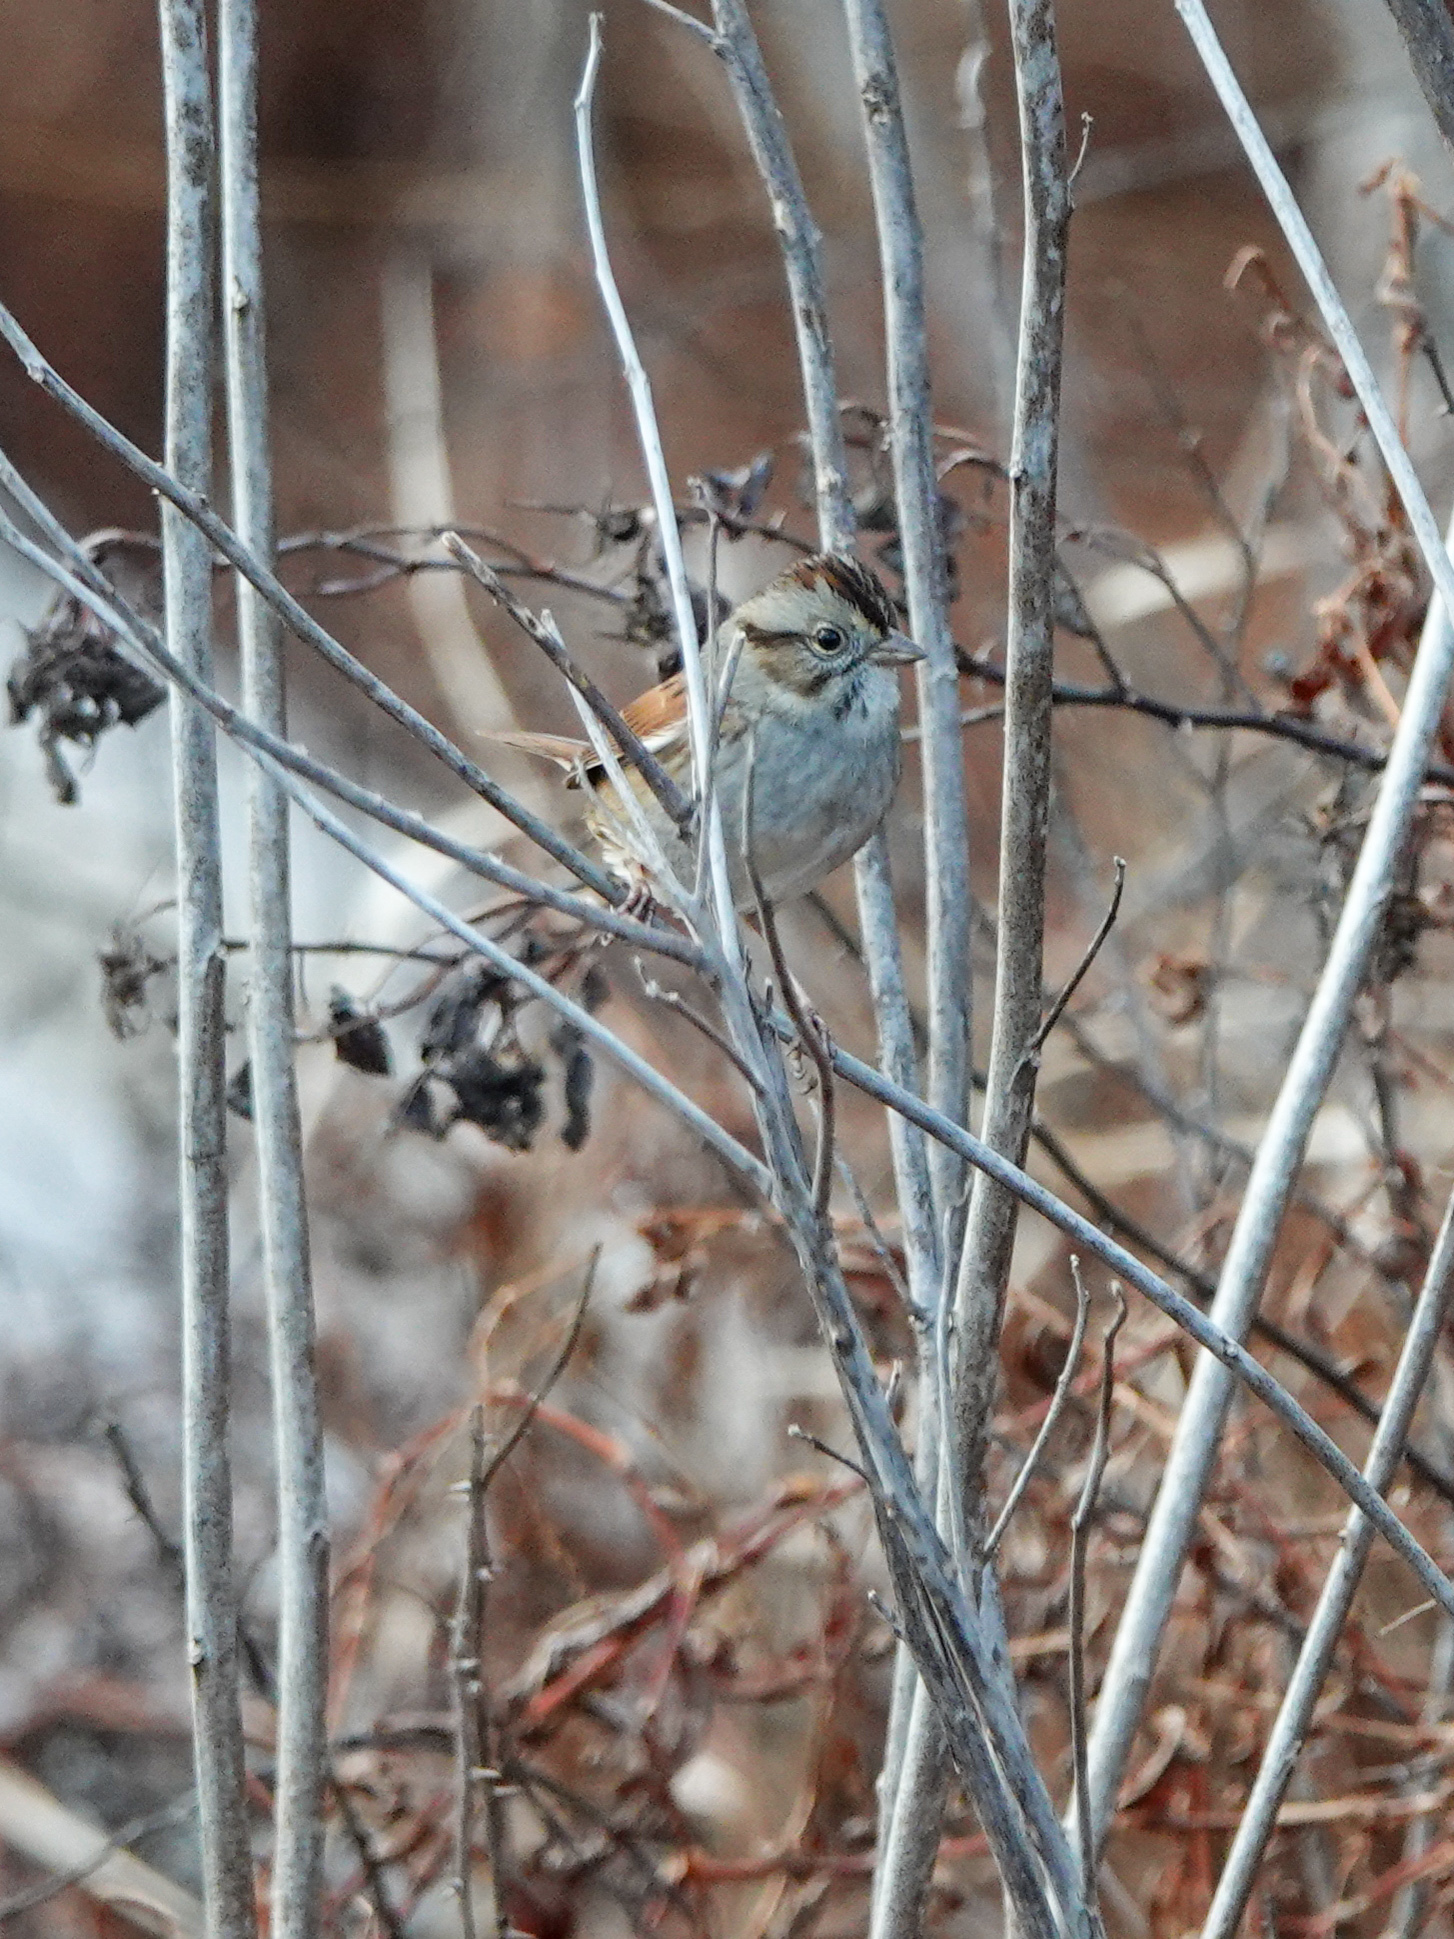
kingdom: Animalia
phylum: Chordata
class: Aves
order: Passeriformes
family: Passerellidae
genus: Melospiza
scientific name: Melospiza georgiana
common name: Swamp sparrow
